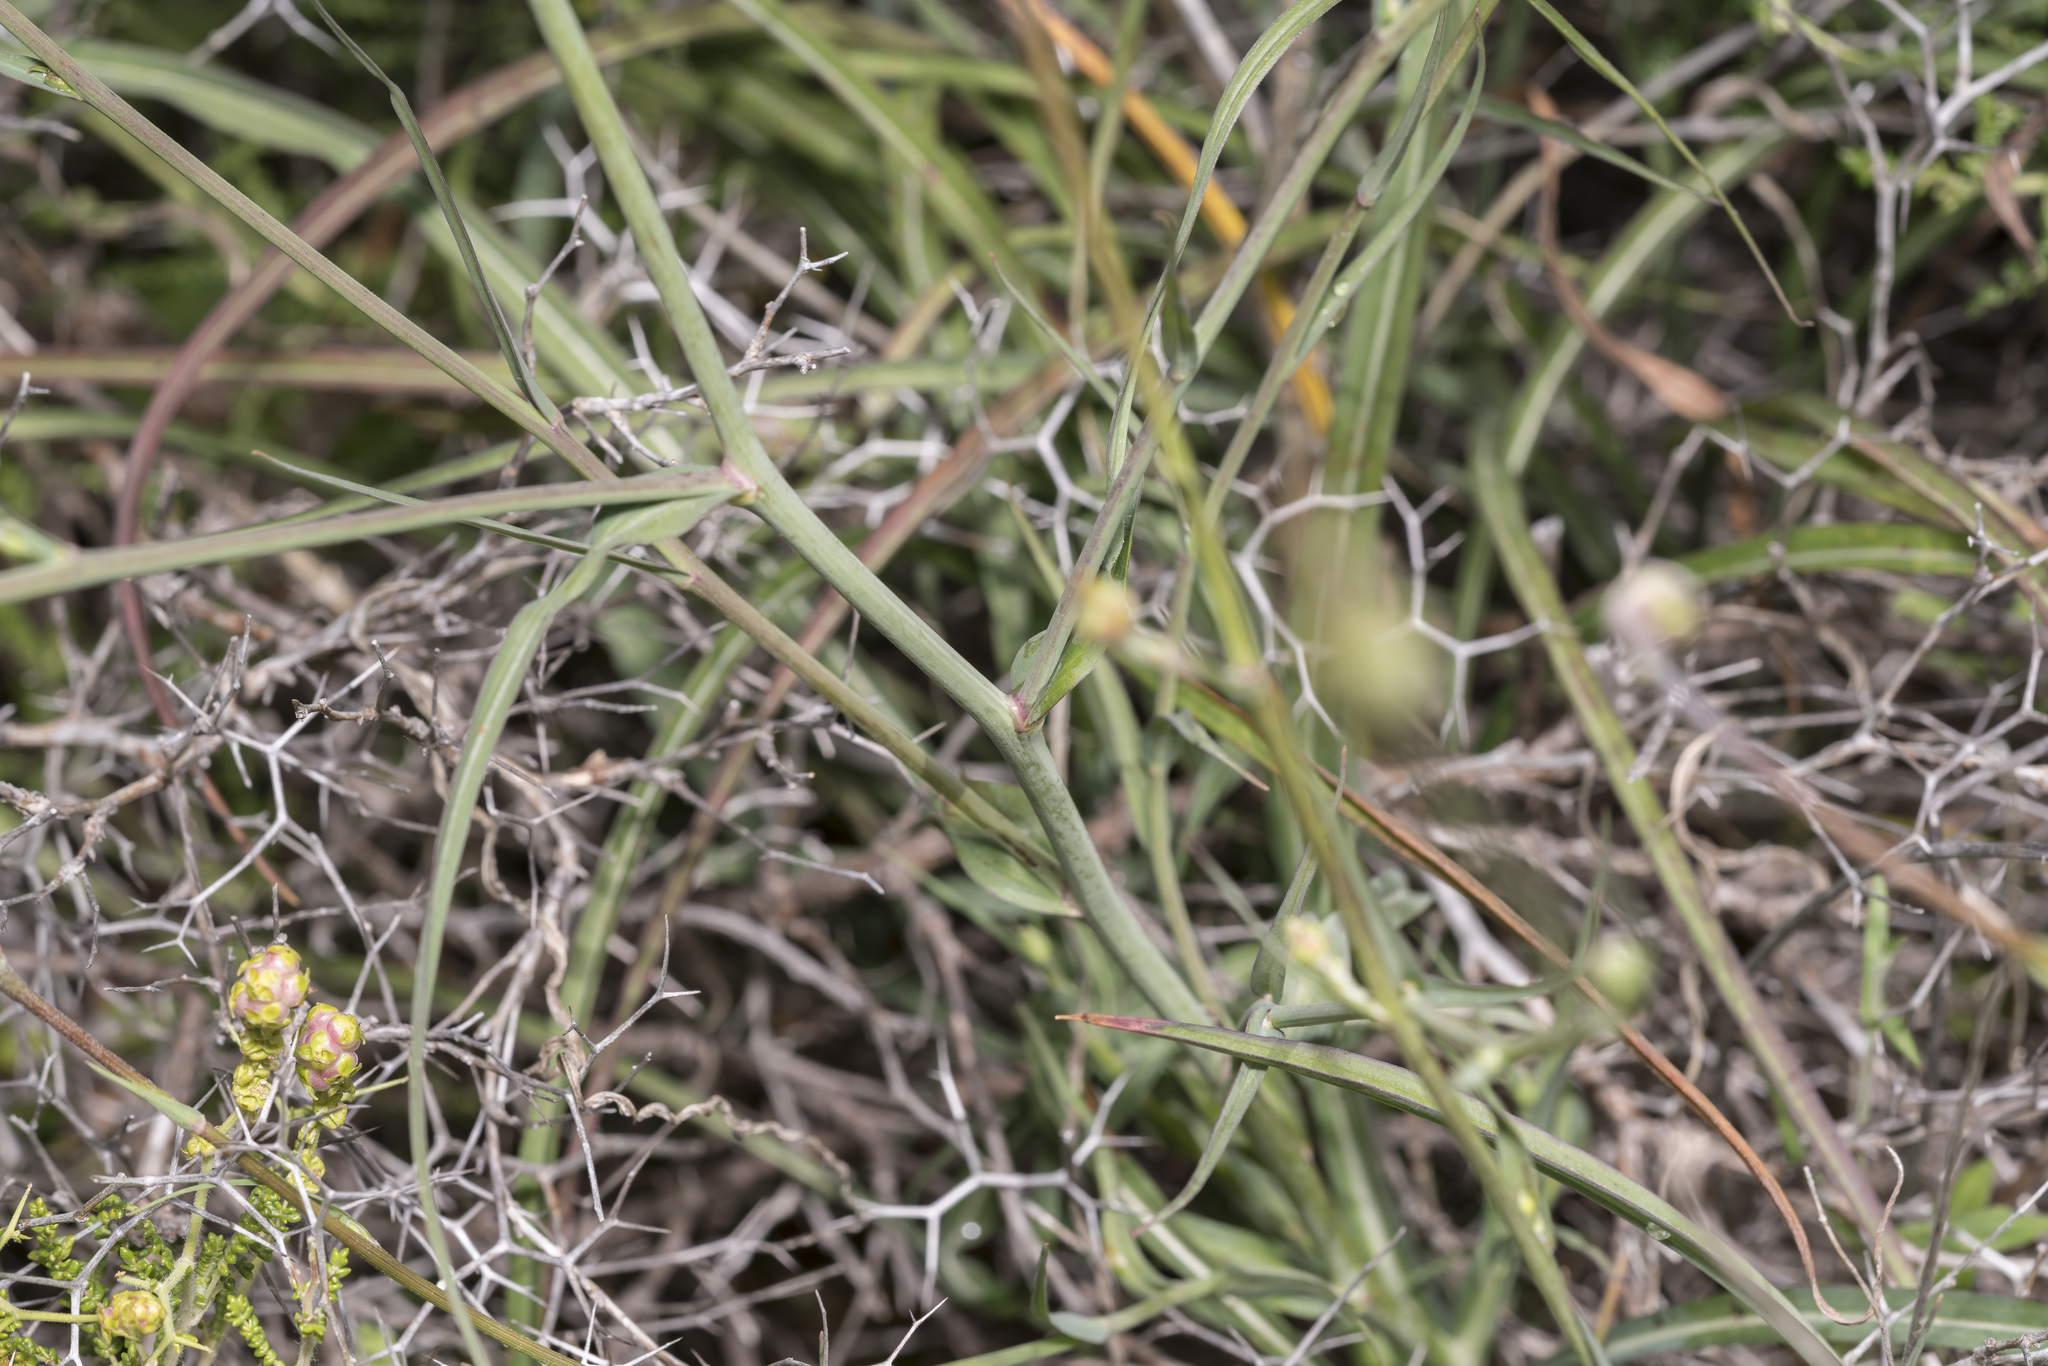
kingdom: Plantae
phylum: Tracheophyta
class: Magnoliopsida
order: Asterales
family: Asteraceae
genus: Candollea
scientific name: Candollea elata
